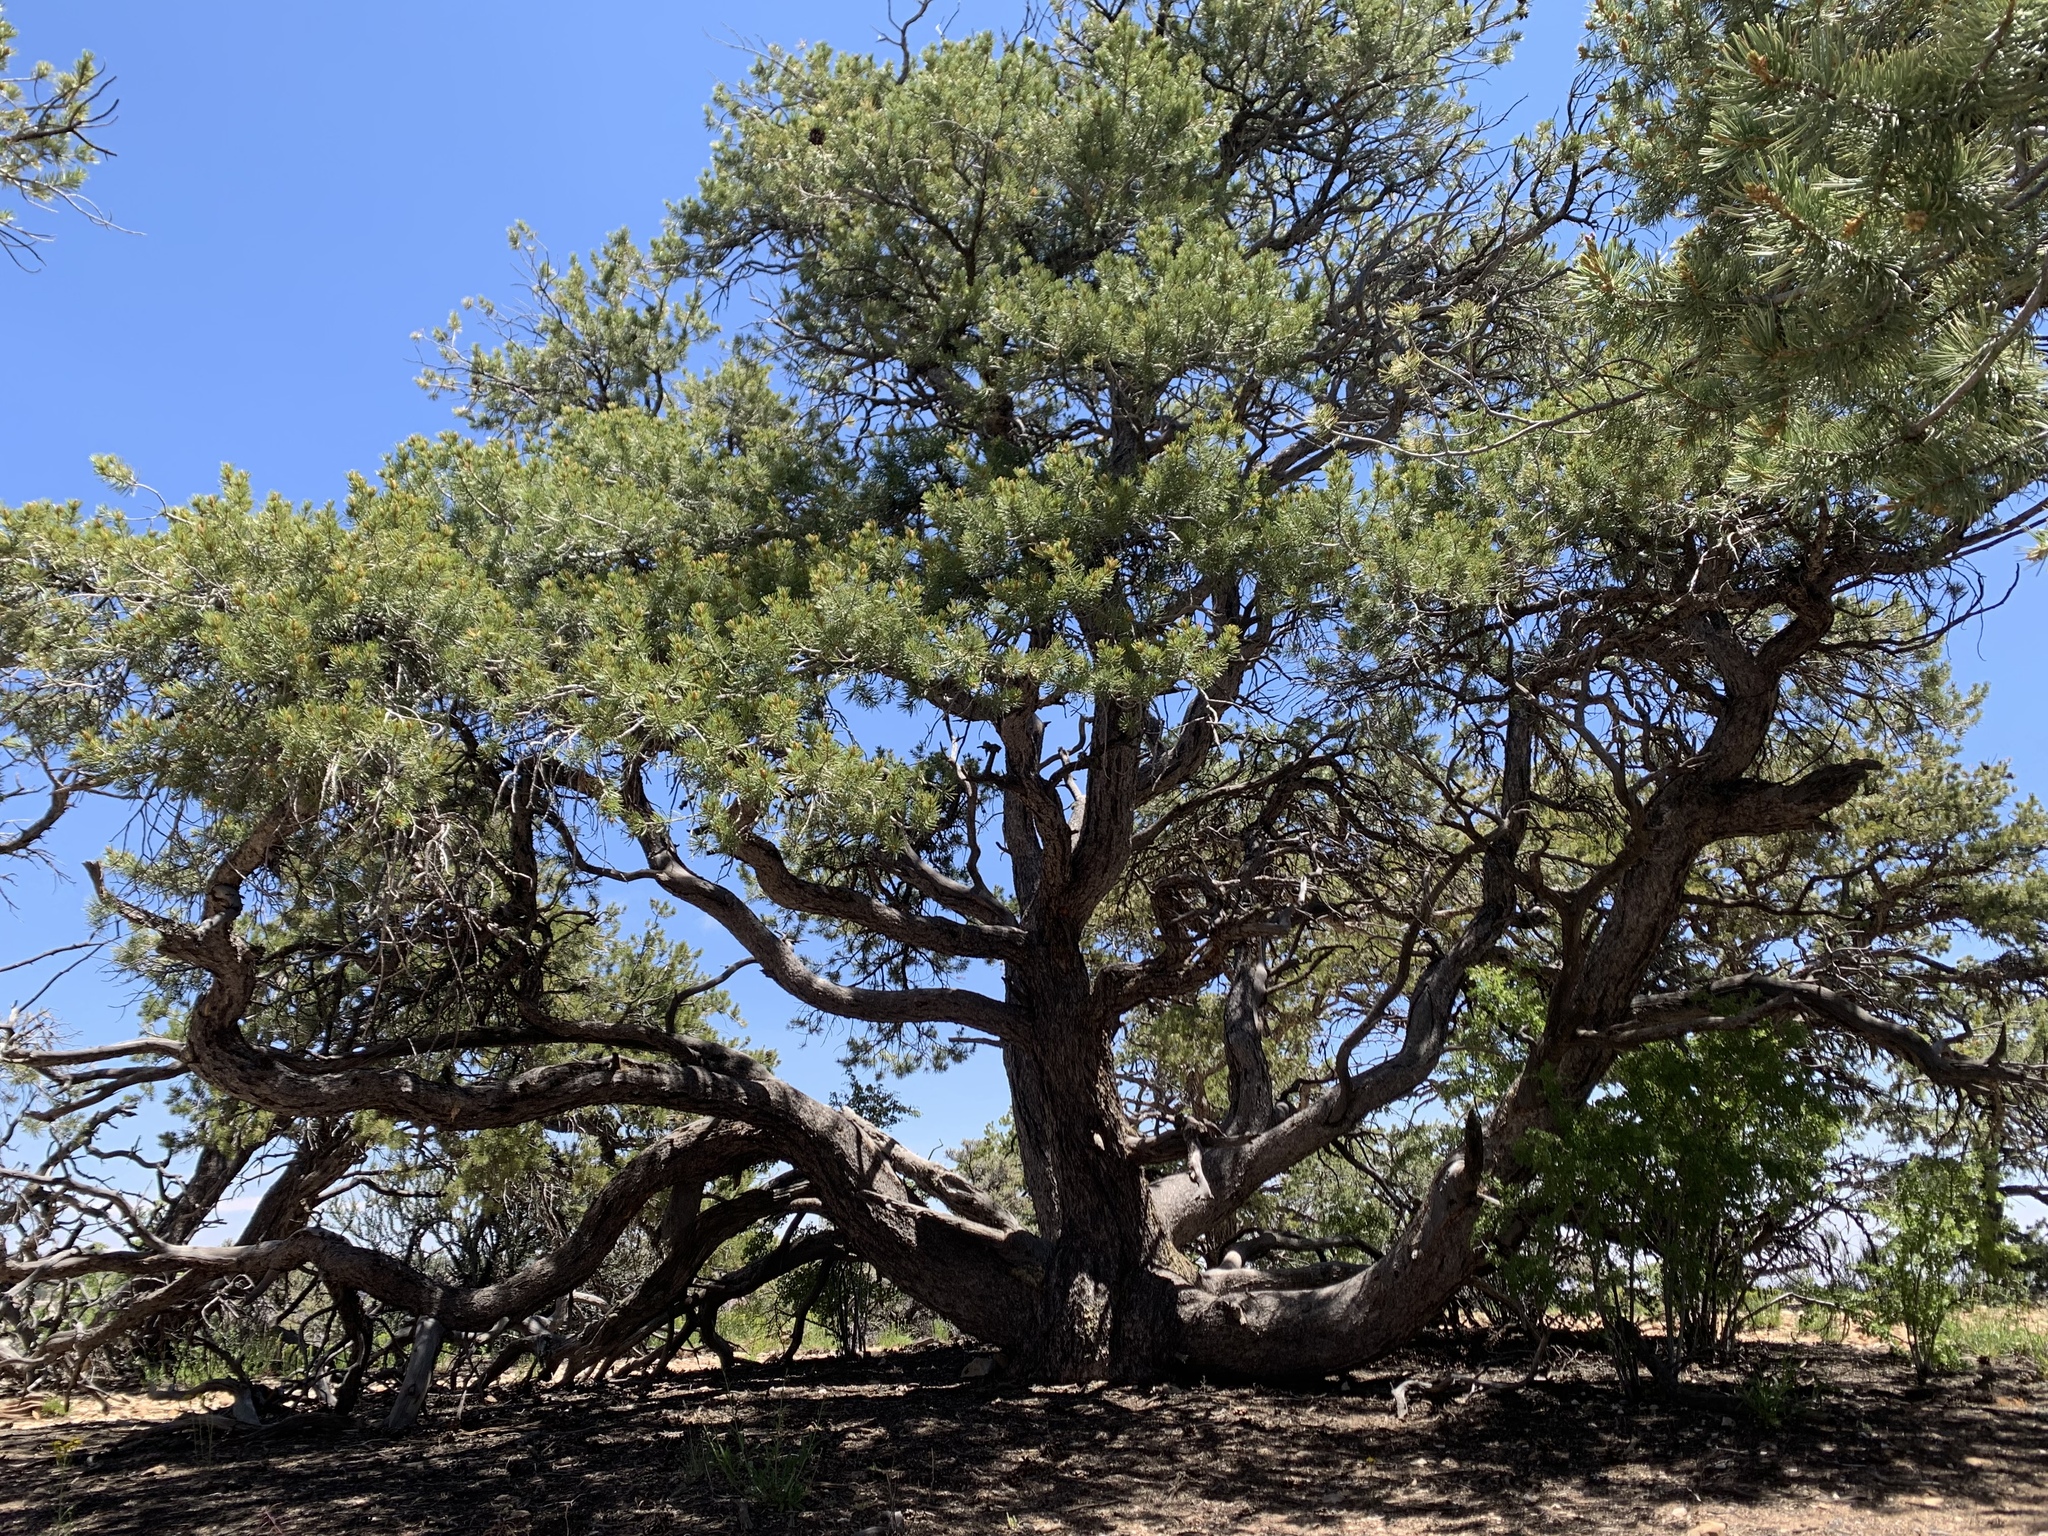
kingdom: Plantae
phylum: Tracheophyta
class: Pinopsida
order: Pinales
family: Pinaceae
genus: Pinus
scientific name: Pinus edulis
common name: Colorado pinyon
